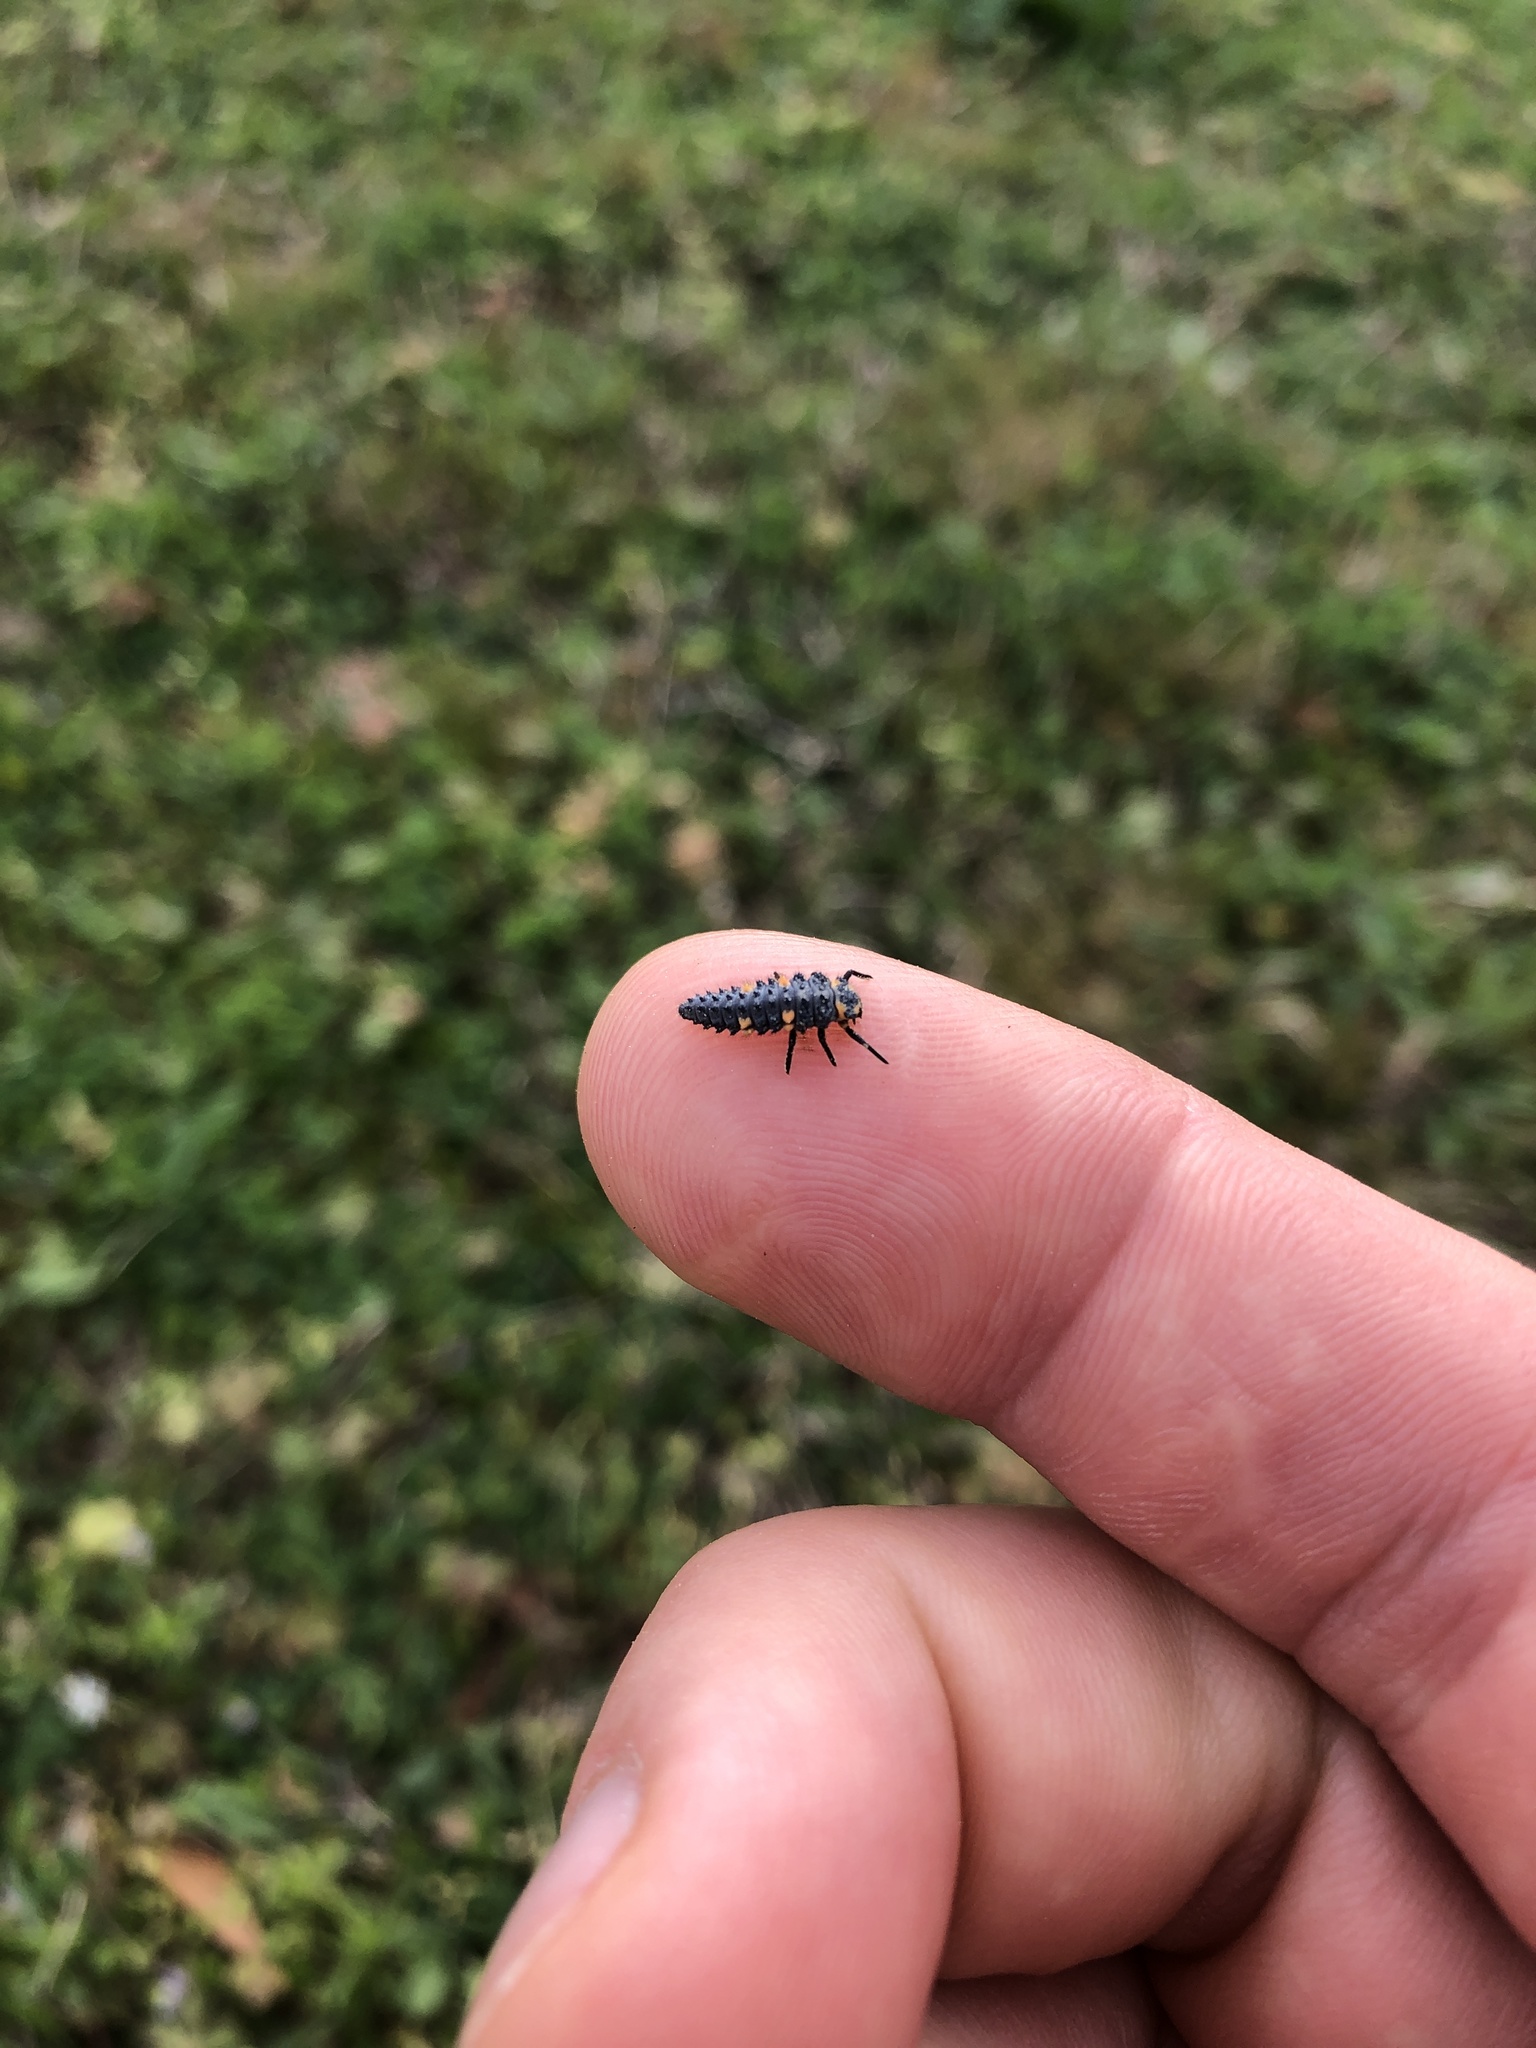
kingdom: Animalia
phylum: Arthropoda
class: Insecta
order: Coleoptera
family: Coccinellidae
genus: Coccinella
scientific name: Coccinella septempunctata
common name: Sevenspotted lady beetle
